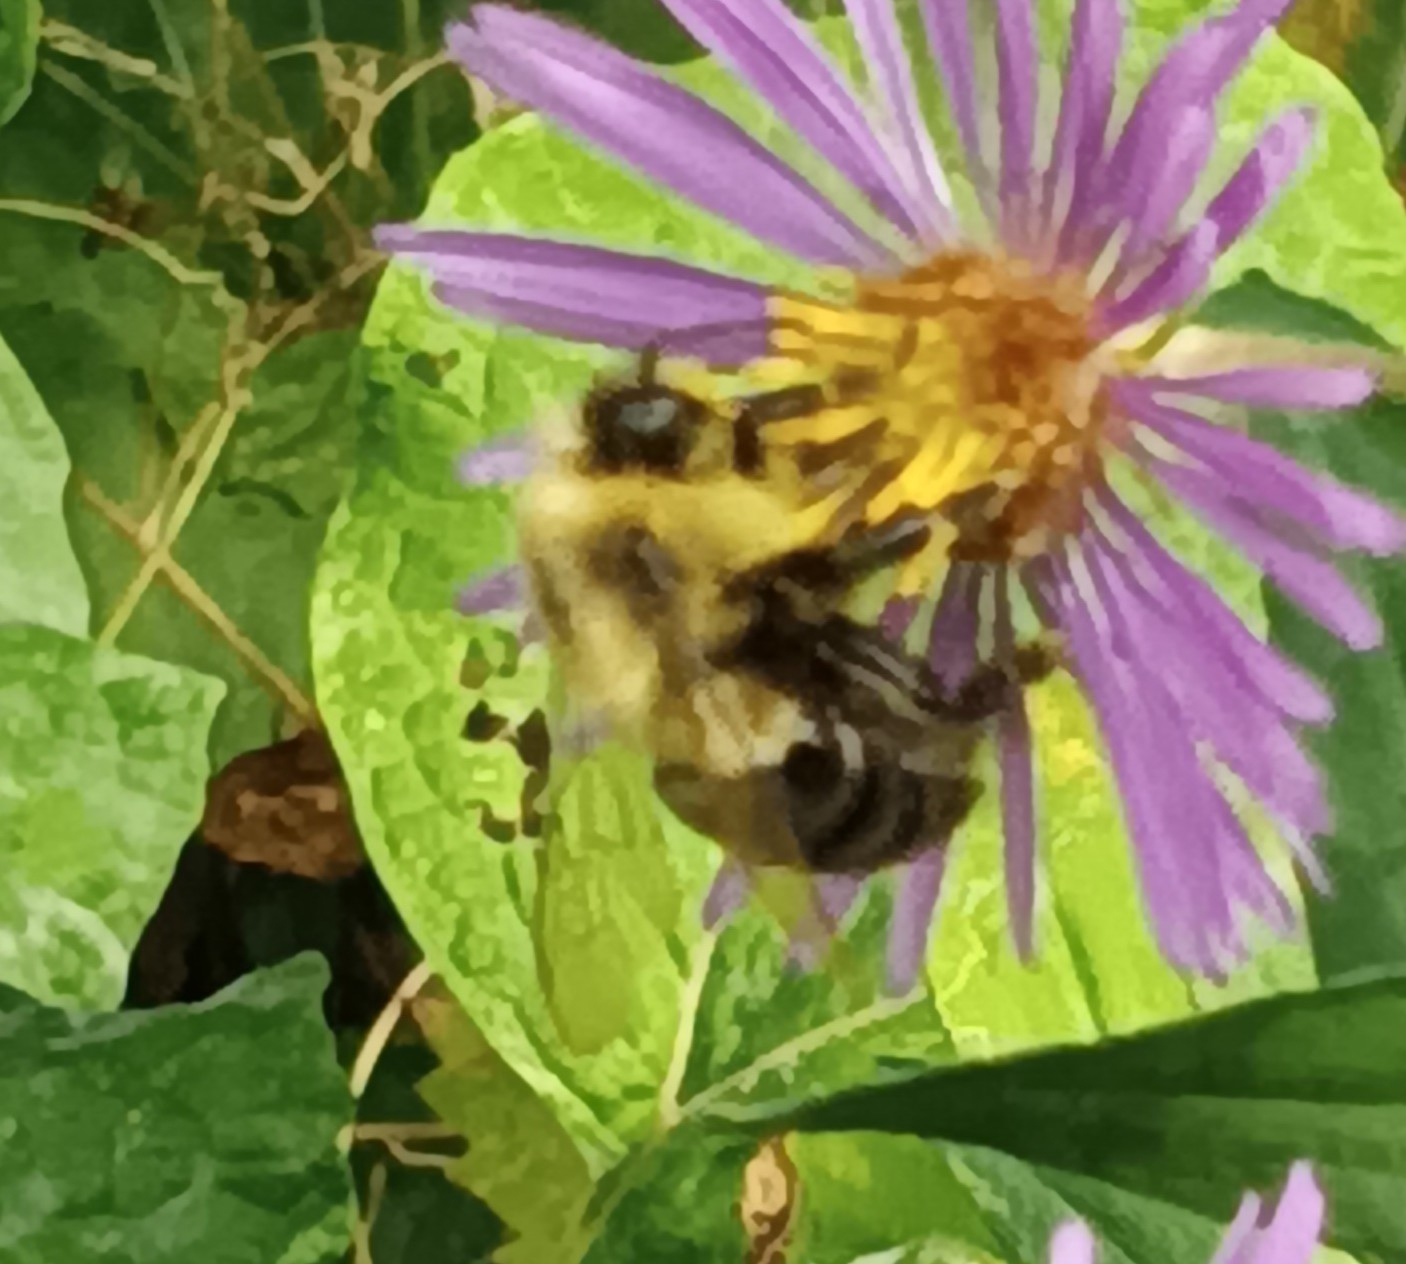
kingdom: Animalia
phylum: Arthropoda
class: Insecta
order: Hymenoptera
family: Apidae
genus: Bombus
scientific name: Bombus impatiens
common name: Common eastern bumble bee
